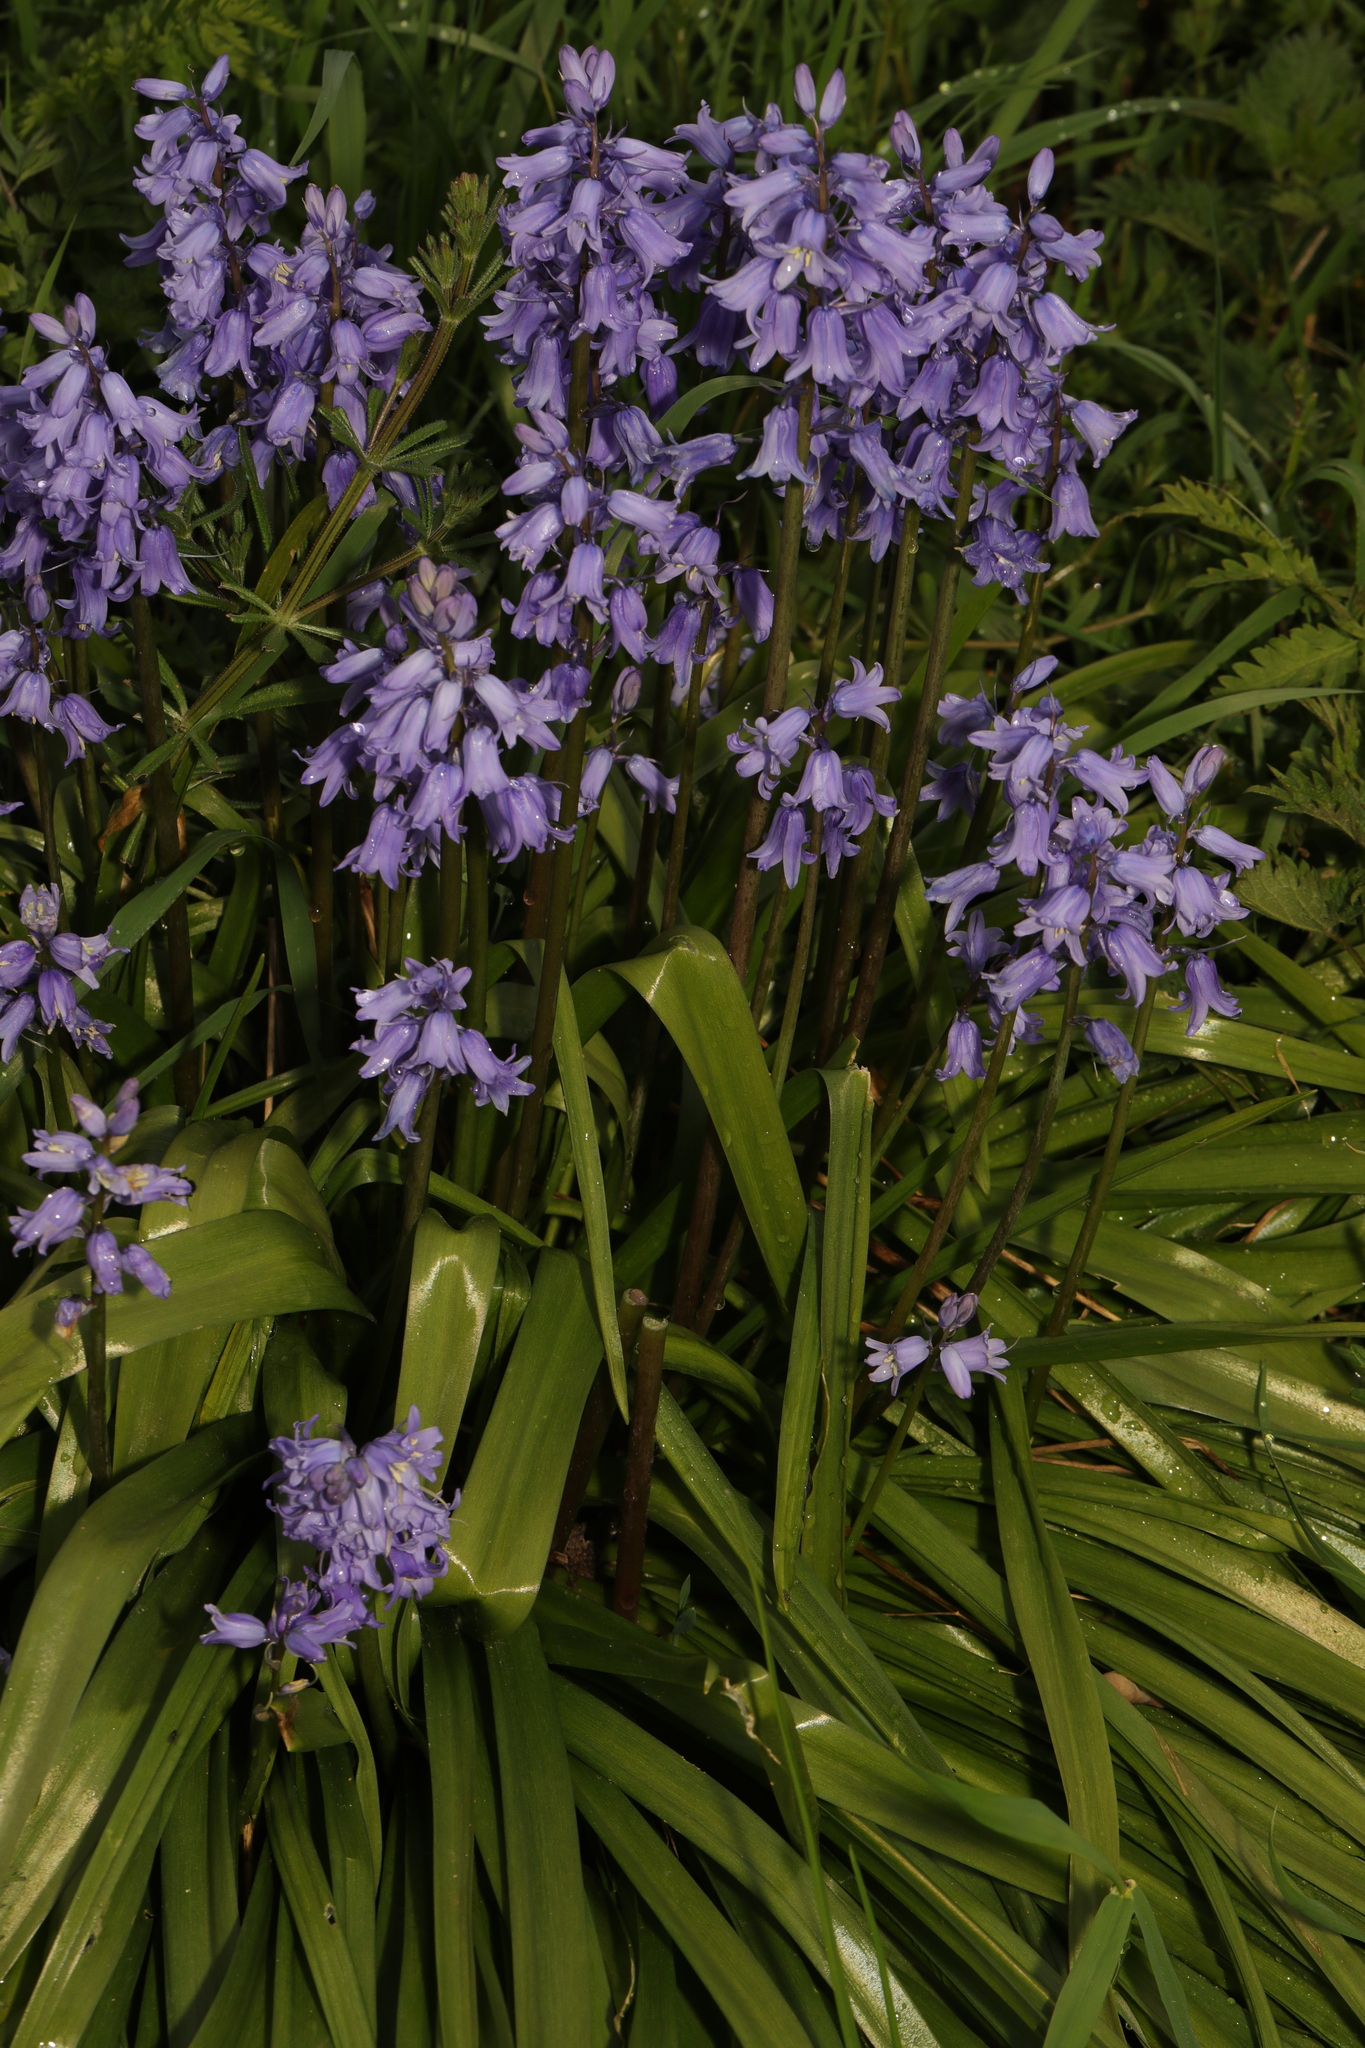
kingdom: Plantae
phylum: Tracheophyta
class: Liliopsida
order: Asparagales
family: Asparagaceae
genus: Hyacinthoides
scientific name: Hyacinthoides massartiana
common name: Hyacinthoides
